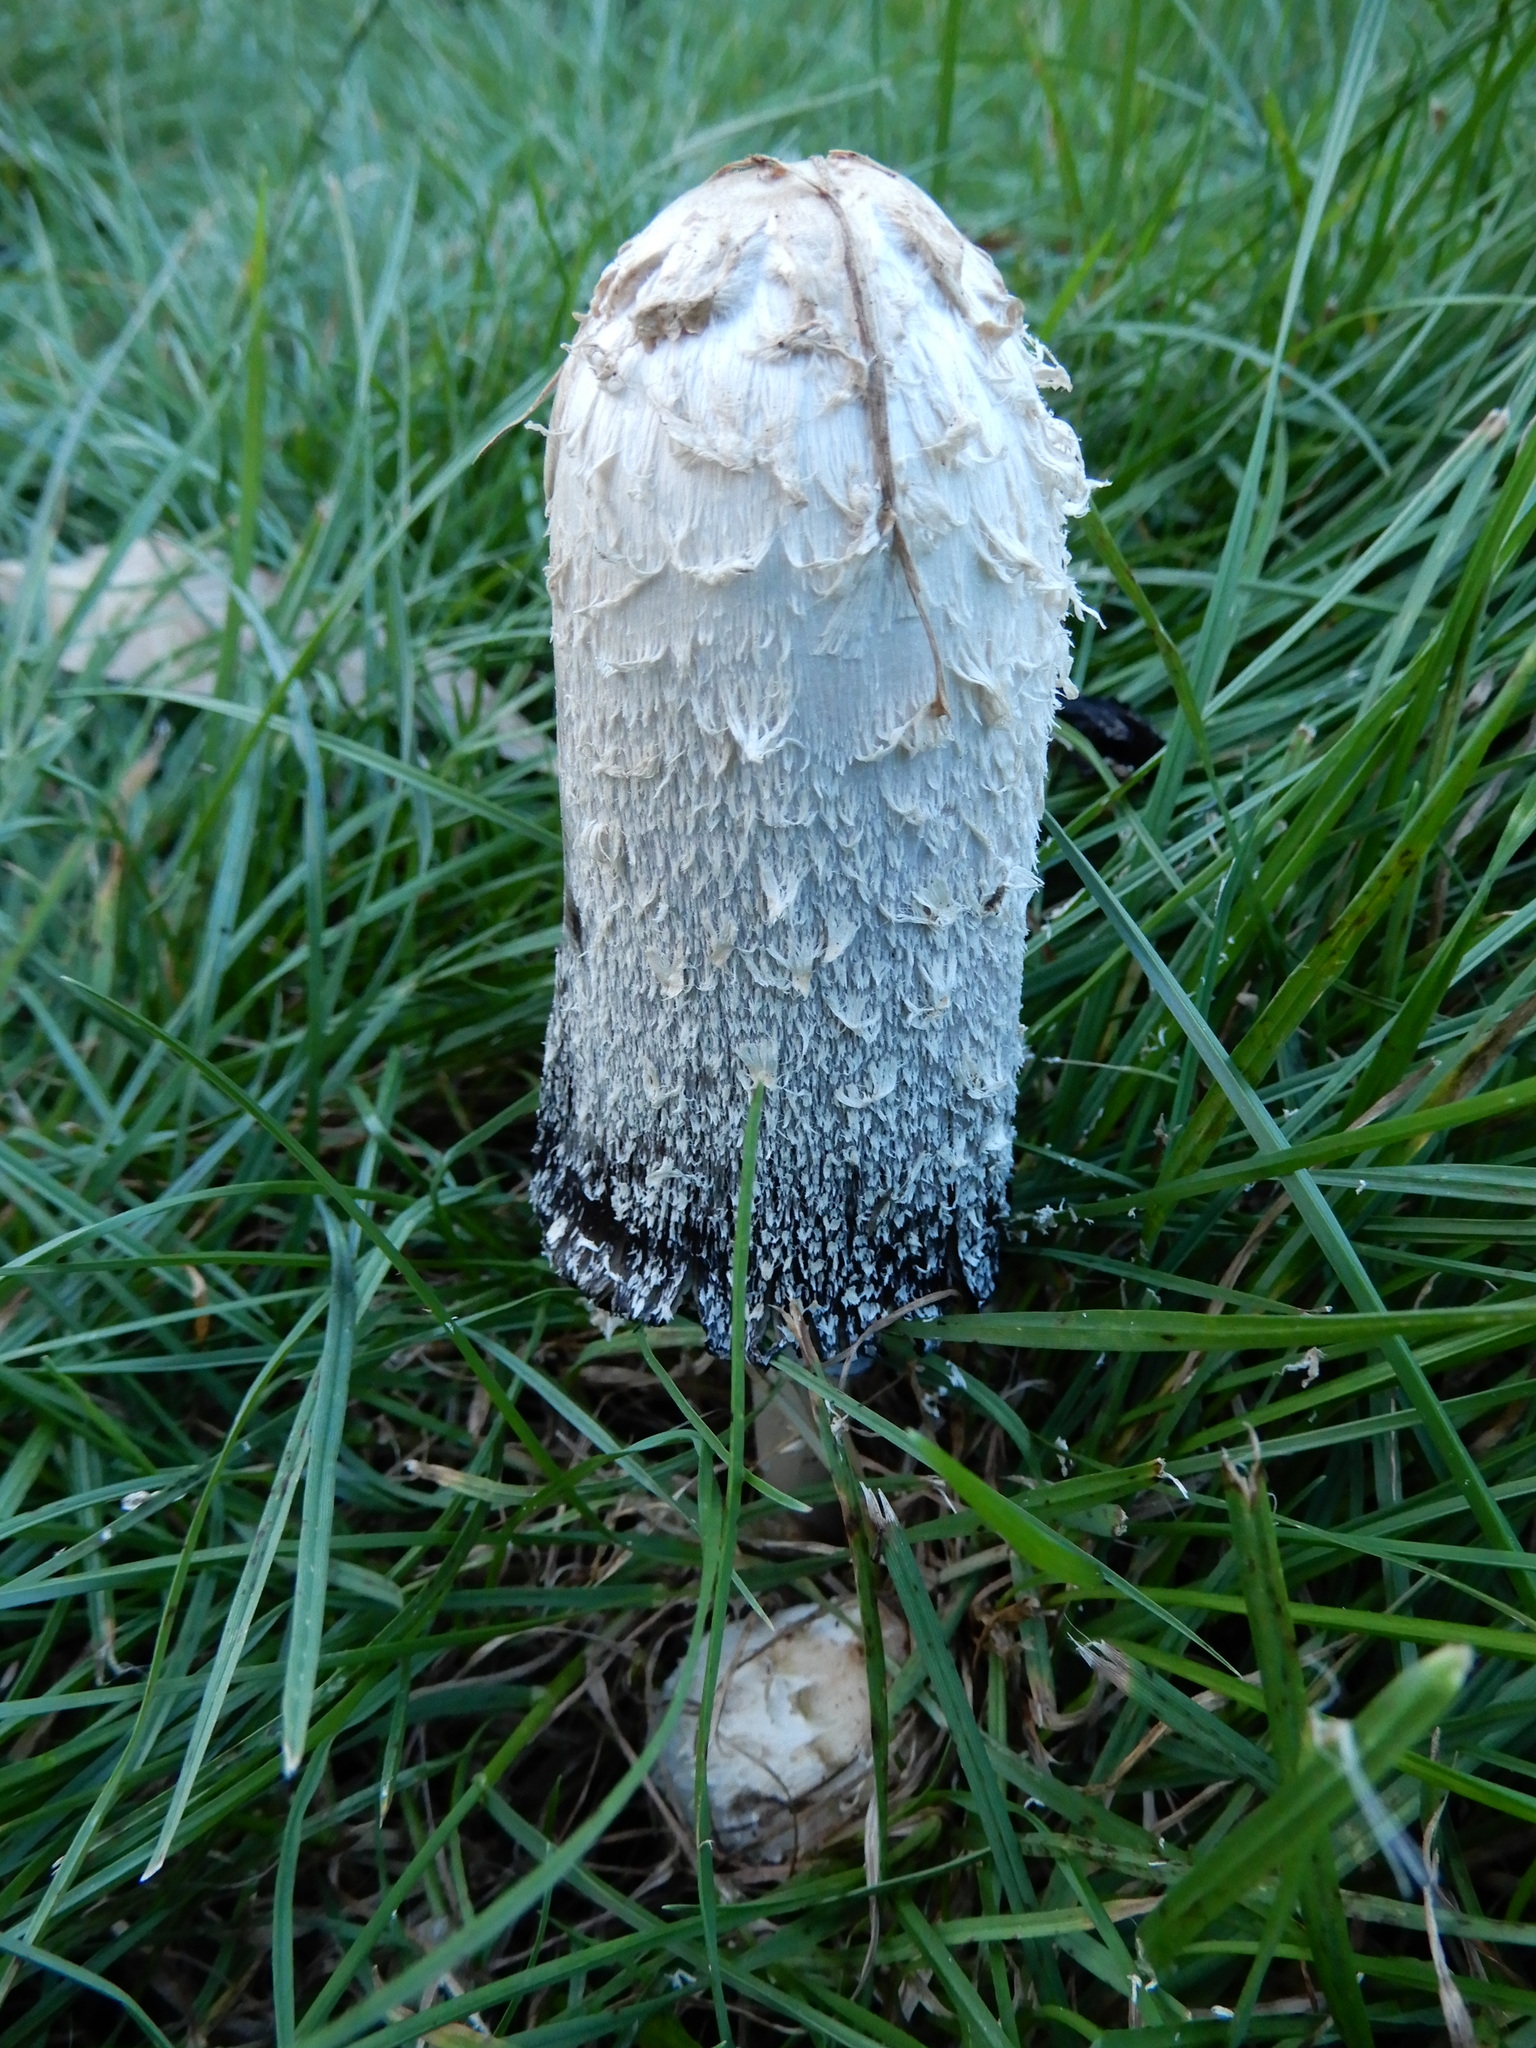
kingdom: Fungi
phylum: Basidiomycota
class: Agaricomycetes
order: Agaricales
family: Agaricaceae
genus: Coprinus
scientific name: Coprinus comatus
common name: Lawyer's wig
